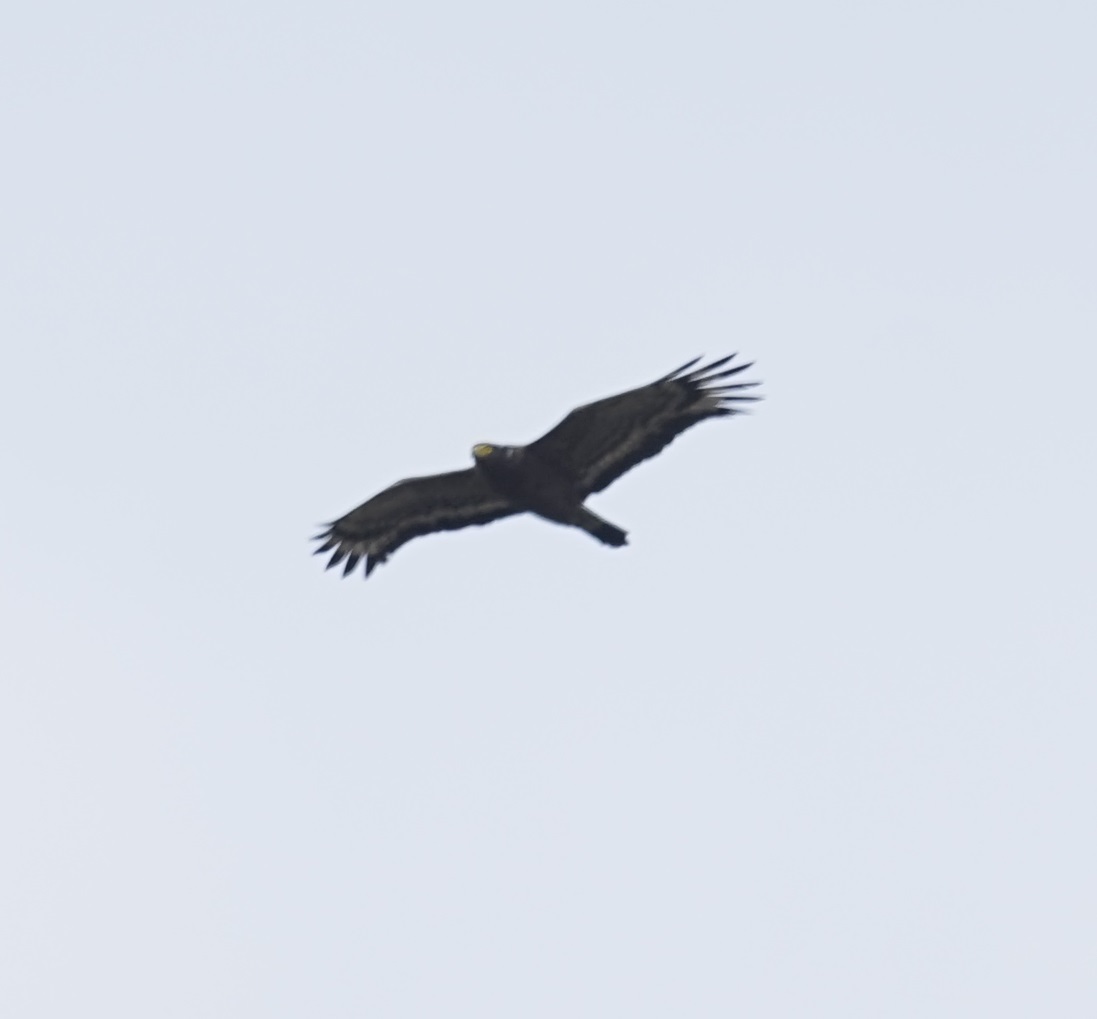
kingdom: Animalia
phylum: Chordata
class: Aves
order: Accipitriformes
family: Accipitridae
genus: Spilornis
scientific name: Spilornis cheela
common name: Crested serpent eagle
